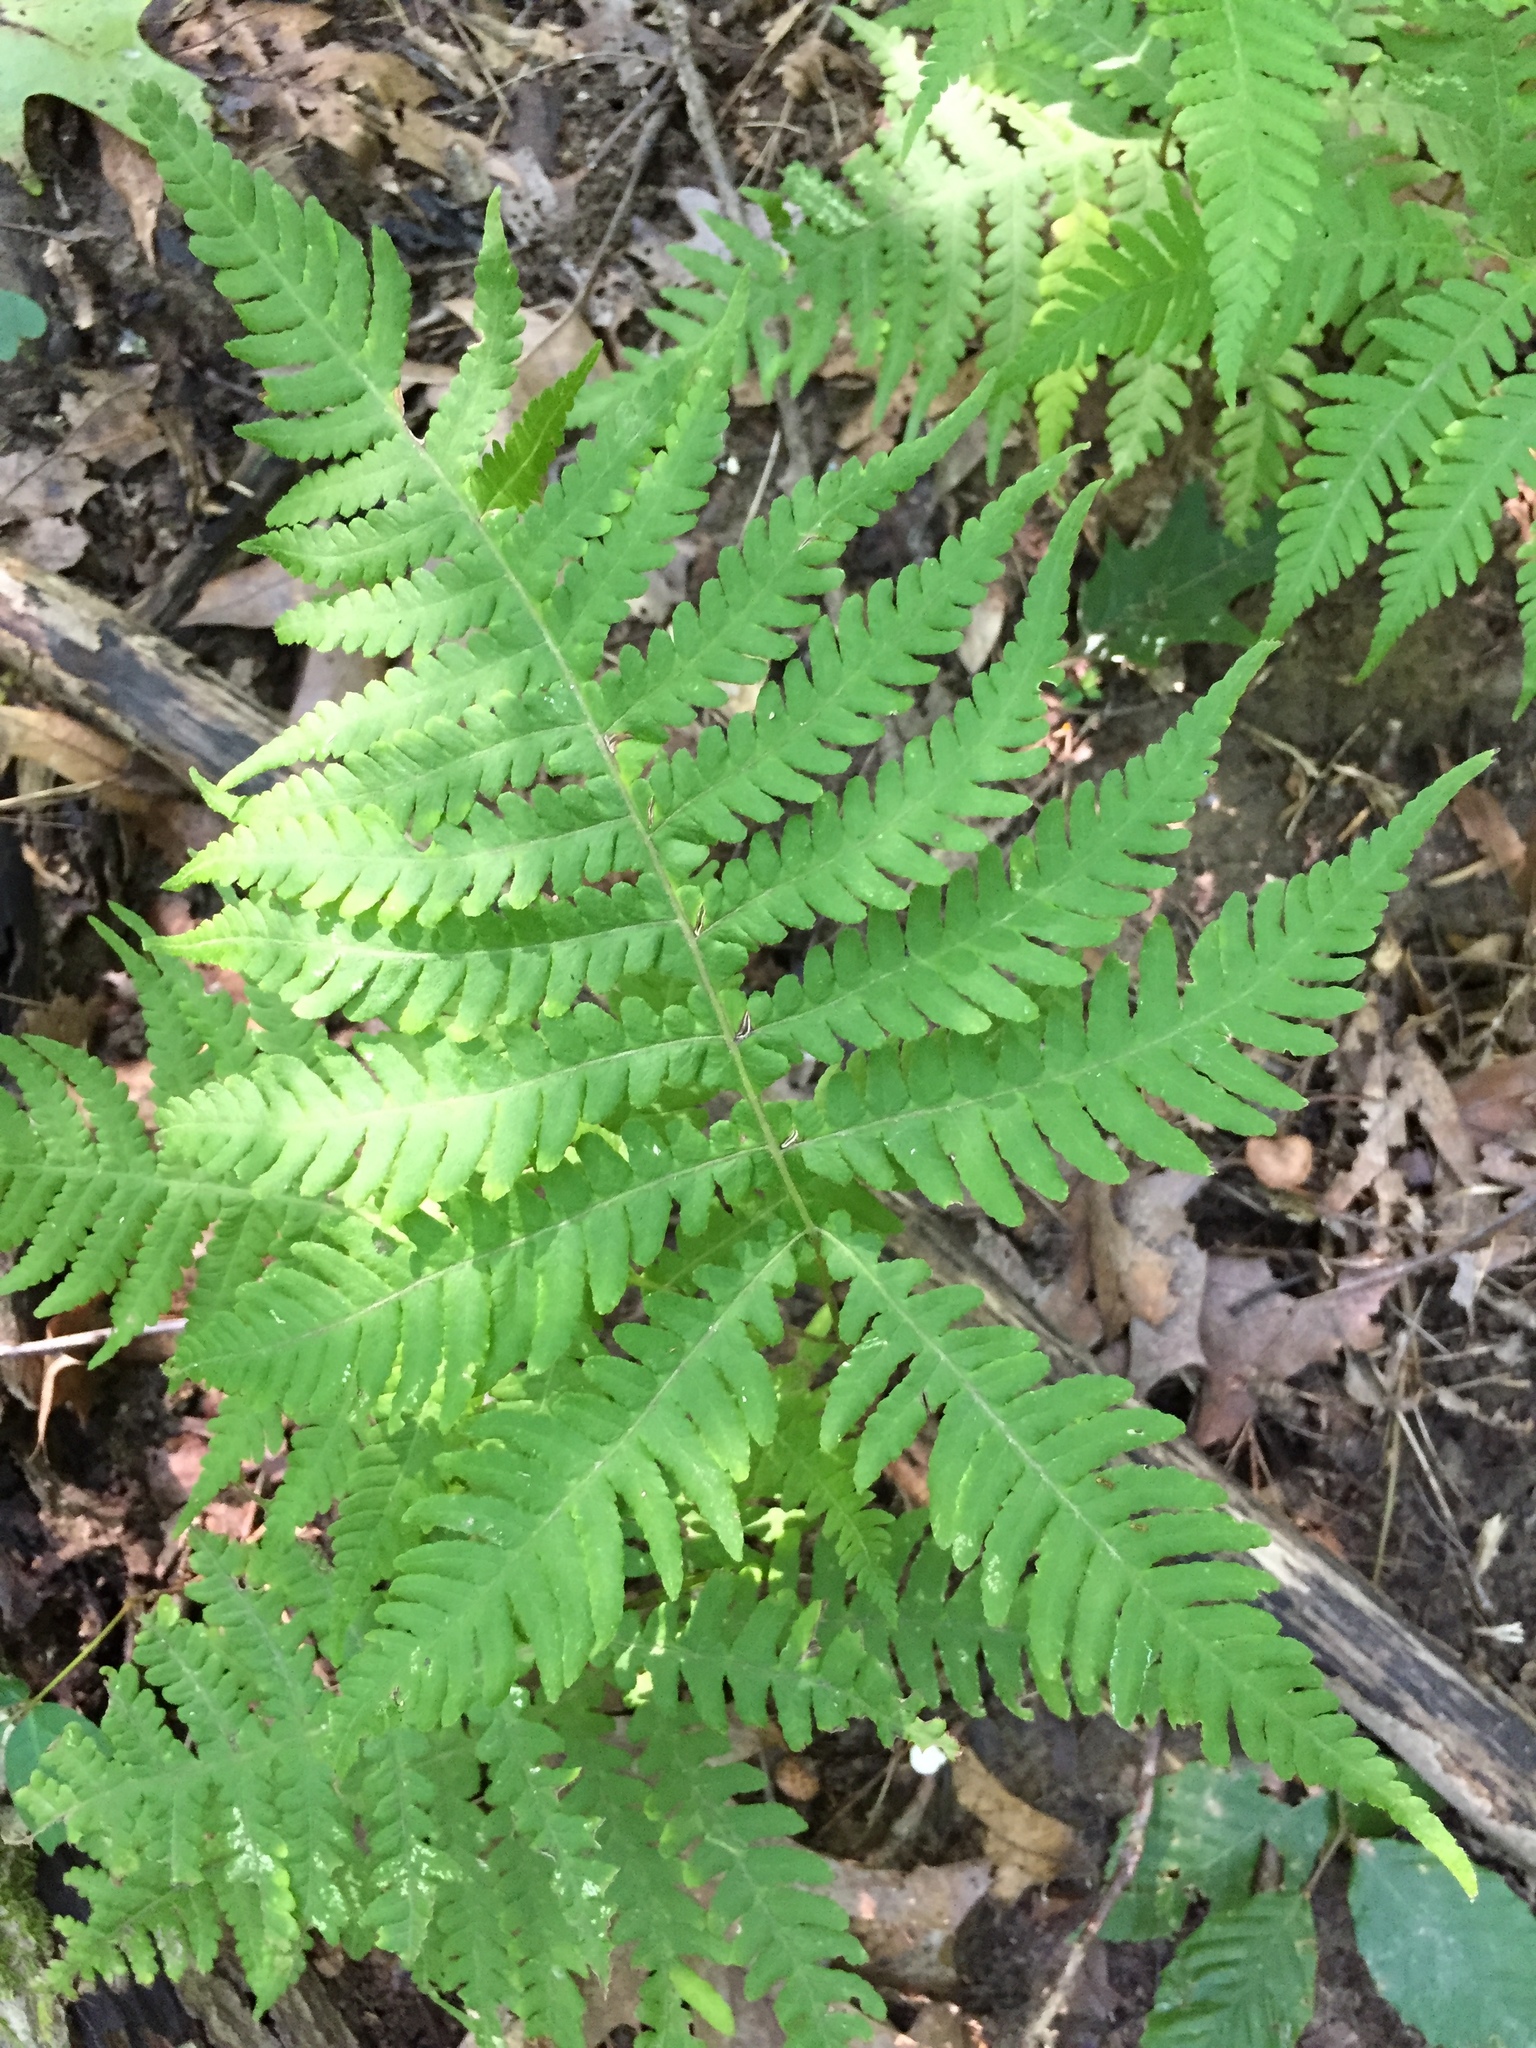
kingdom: Plantae
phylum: Tracheophyta
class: Polypodiopsida
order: Polypodiales
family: Thelypteridaceae
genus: Phegopteris
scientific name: Phegopteris hexagonoptera
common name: Broad beech fern
